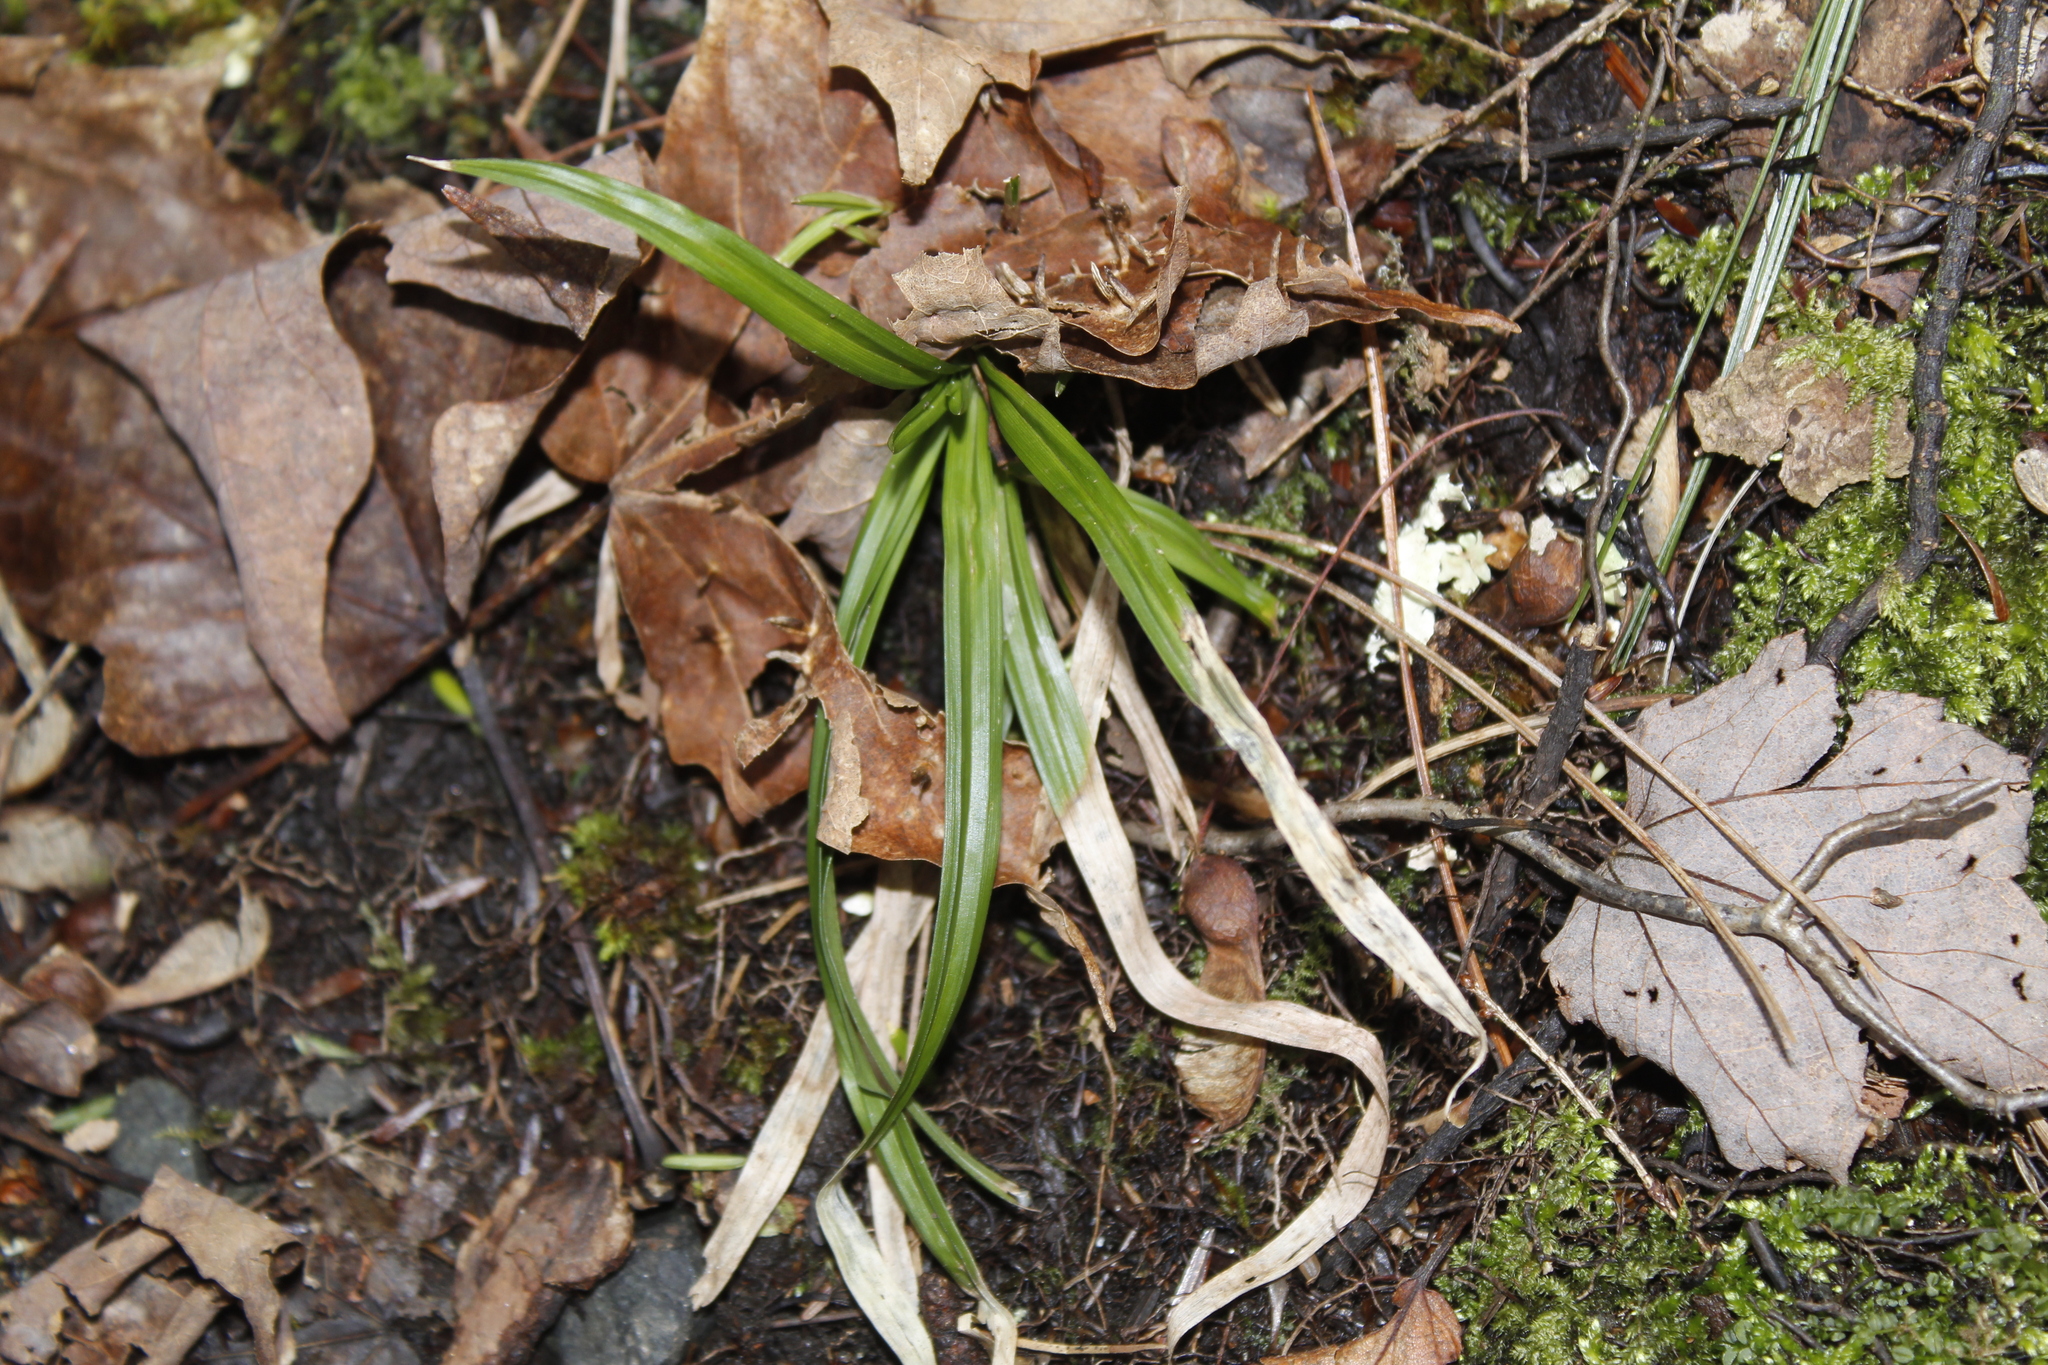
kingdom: Plantae
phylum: Tracheophyta
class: Liliopsida
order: Poales
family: Cyperaceae
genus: Carex
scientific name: Carex
